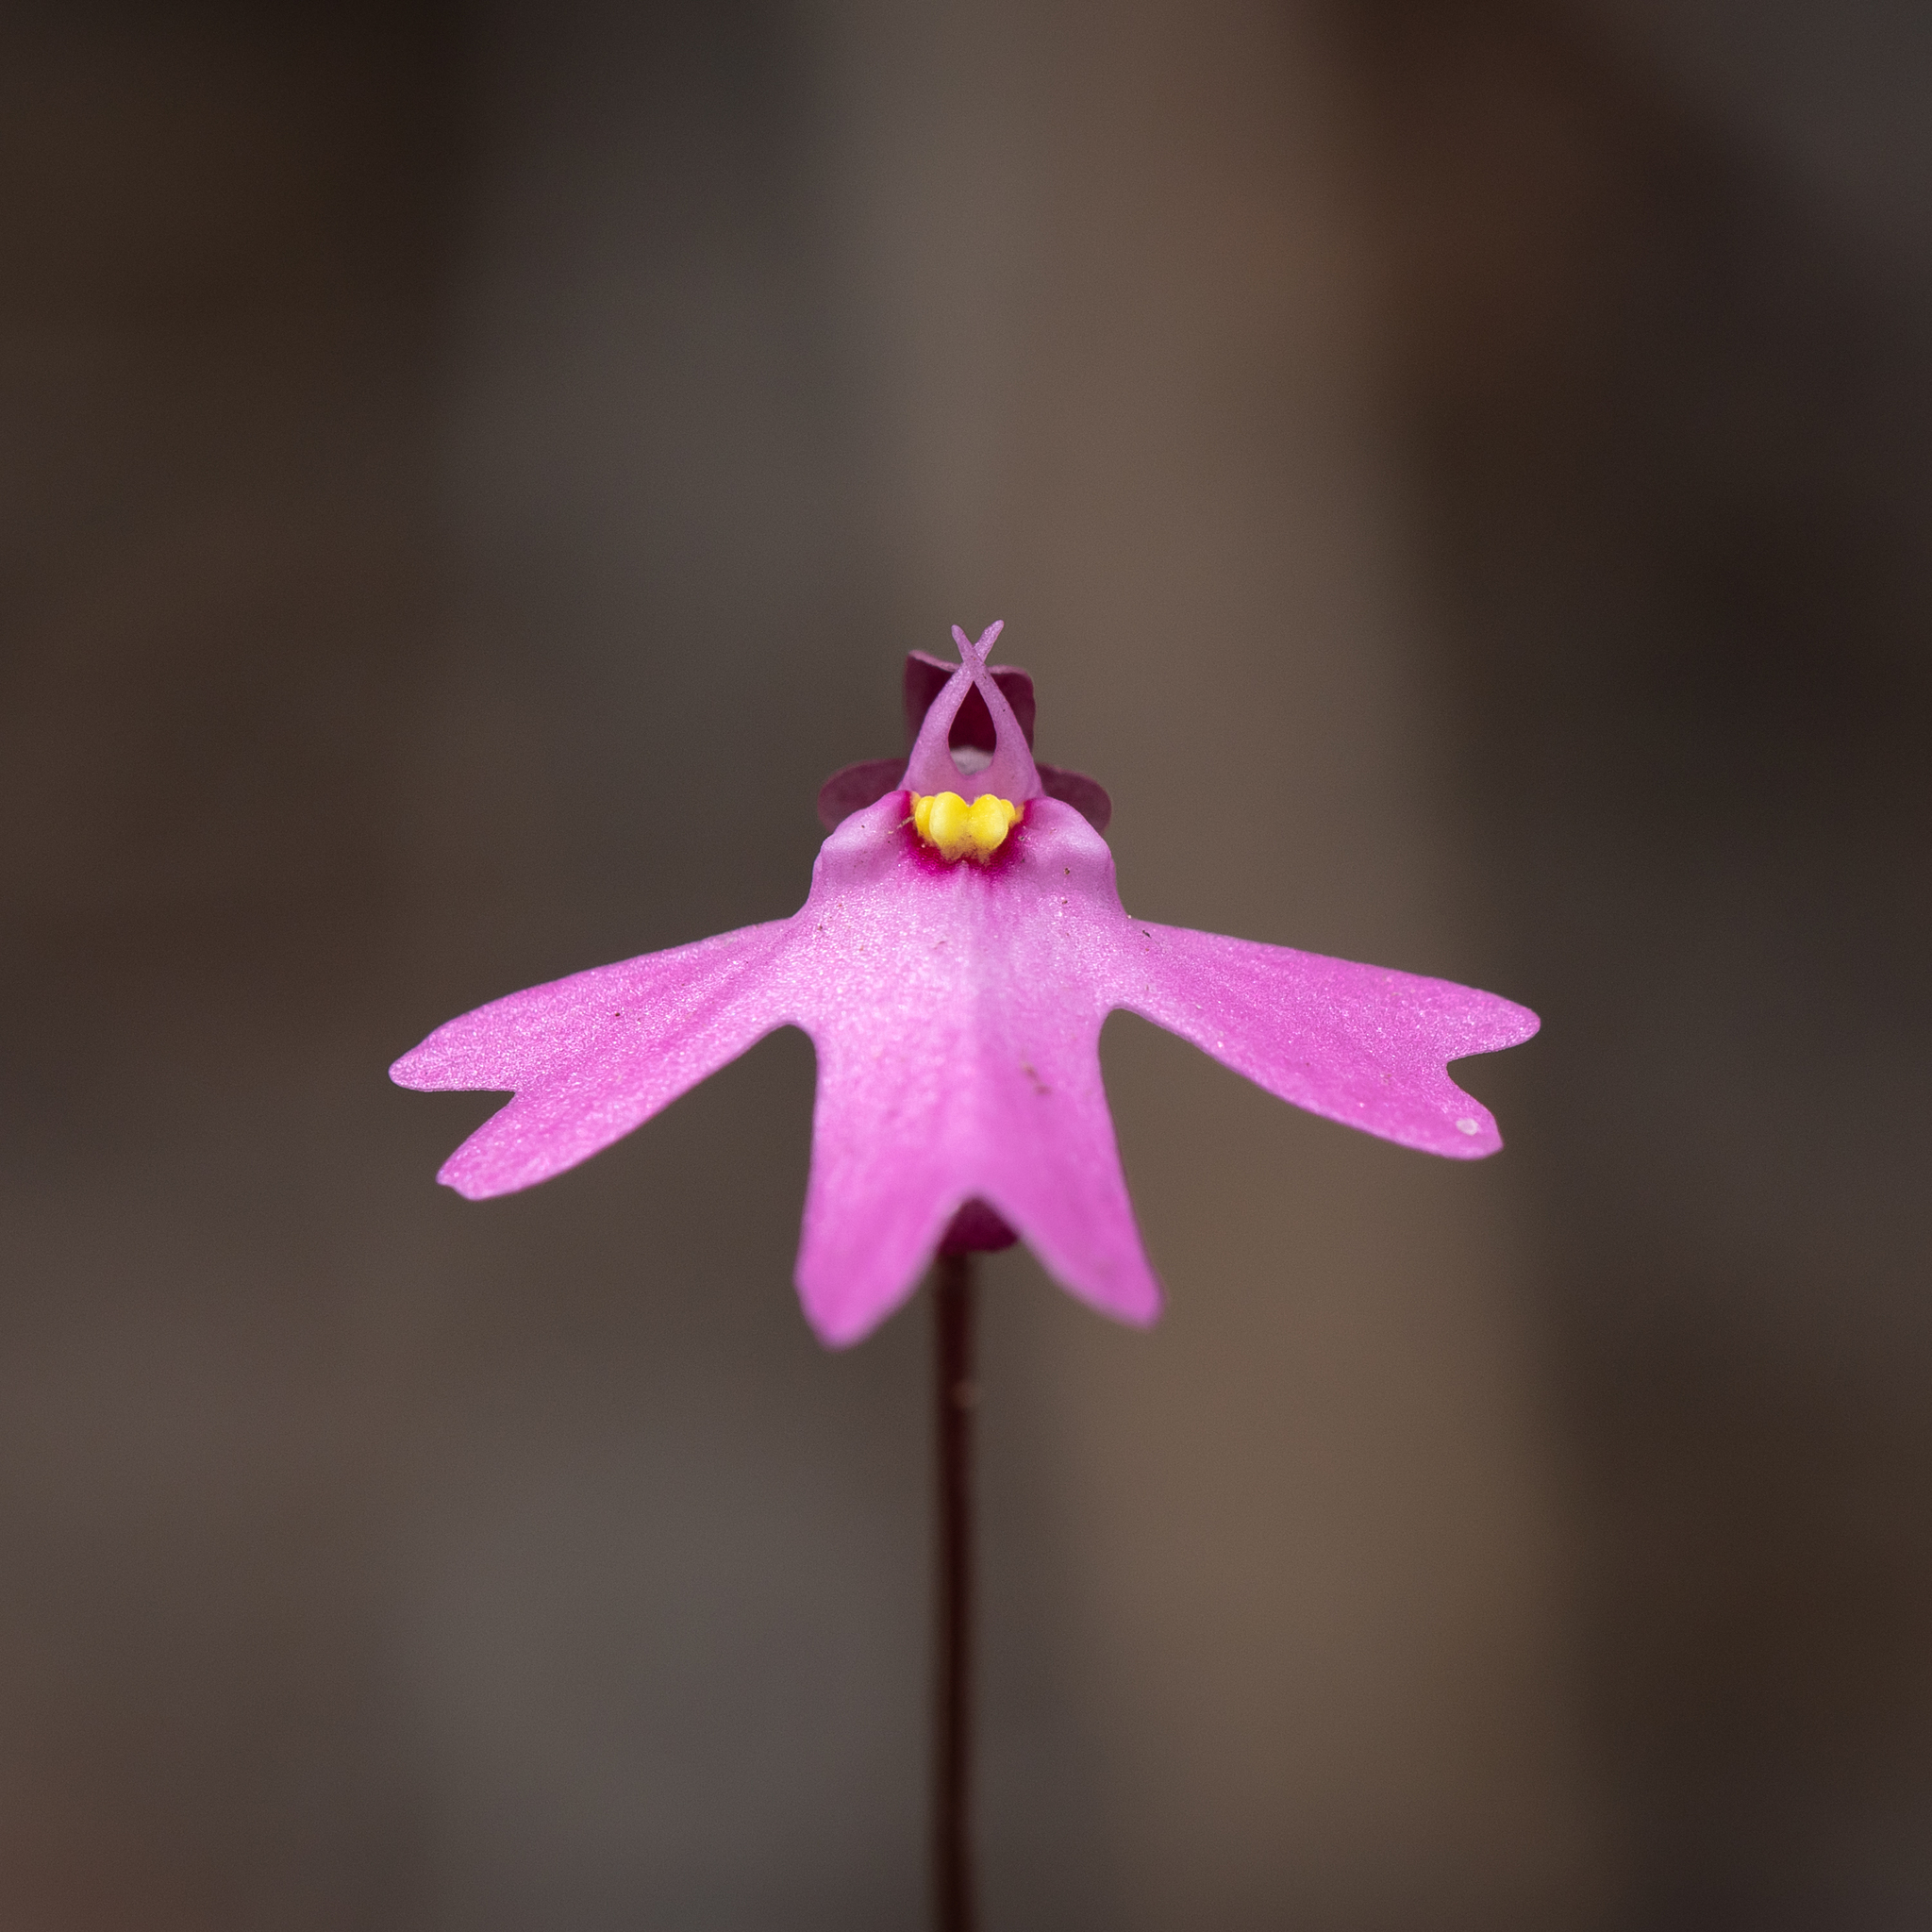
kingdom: Plantae
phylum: Tracheophyta
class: Magnoliopsida
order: Lamiales
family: Lentibulariaceae
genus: Utricularia
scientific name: Utricularia multifida
